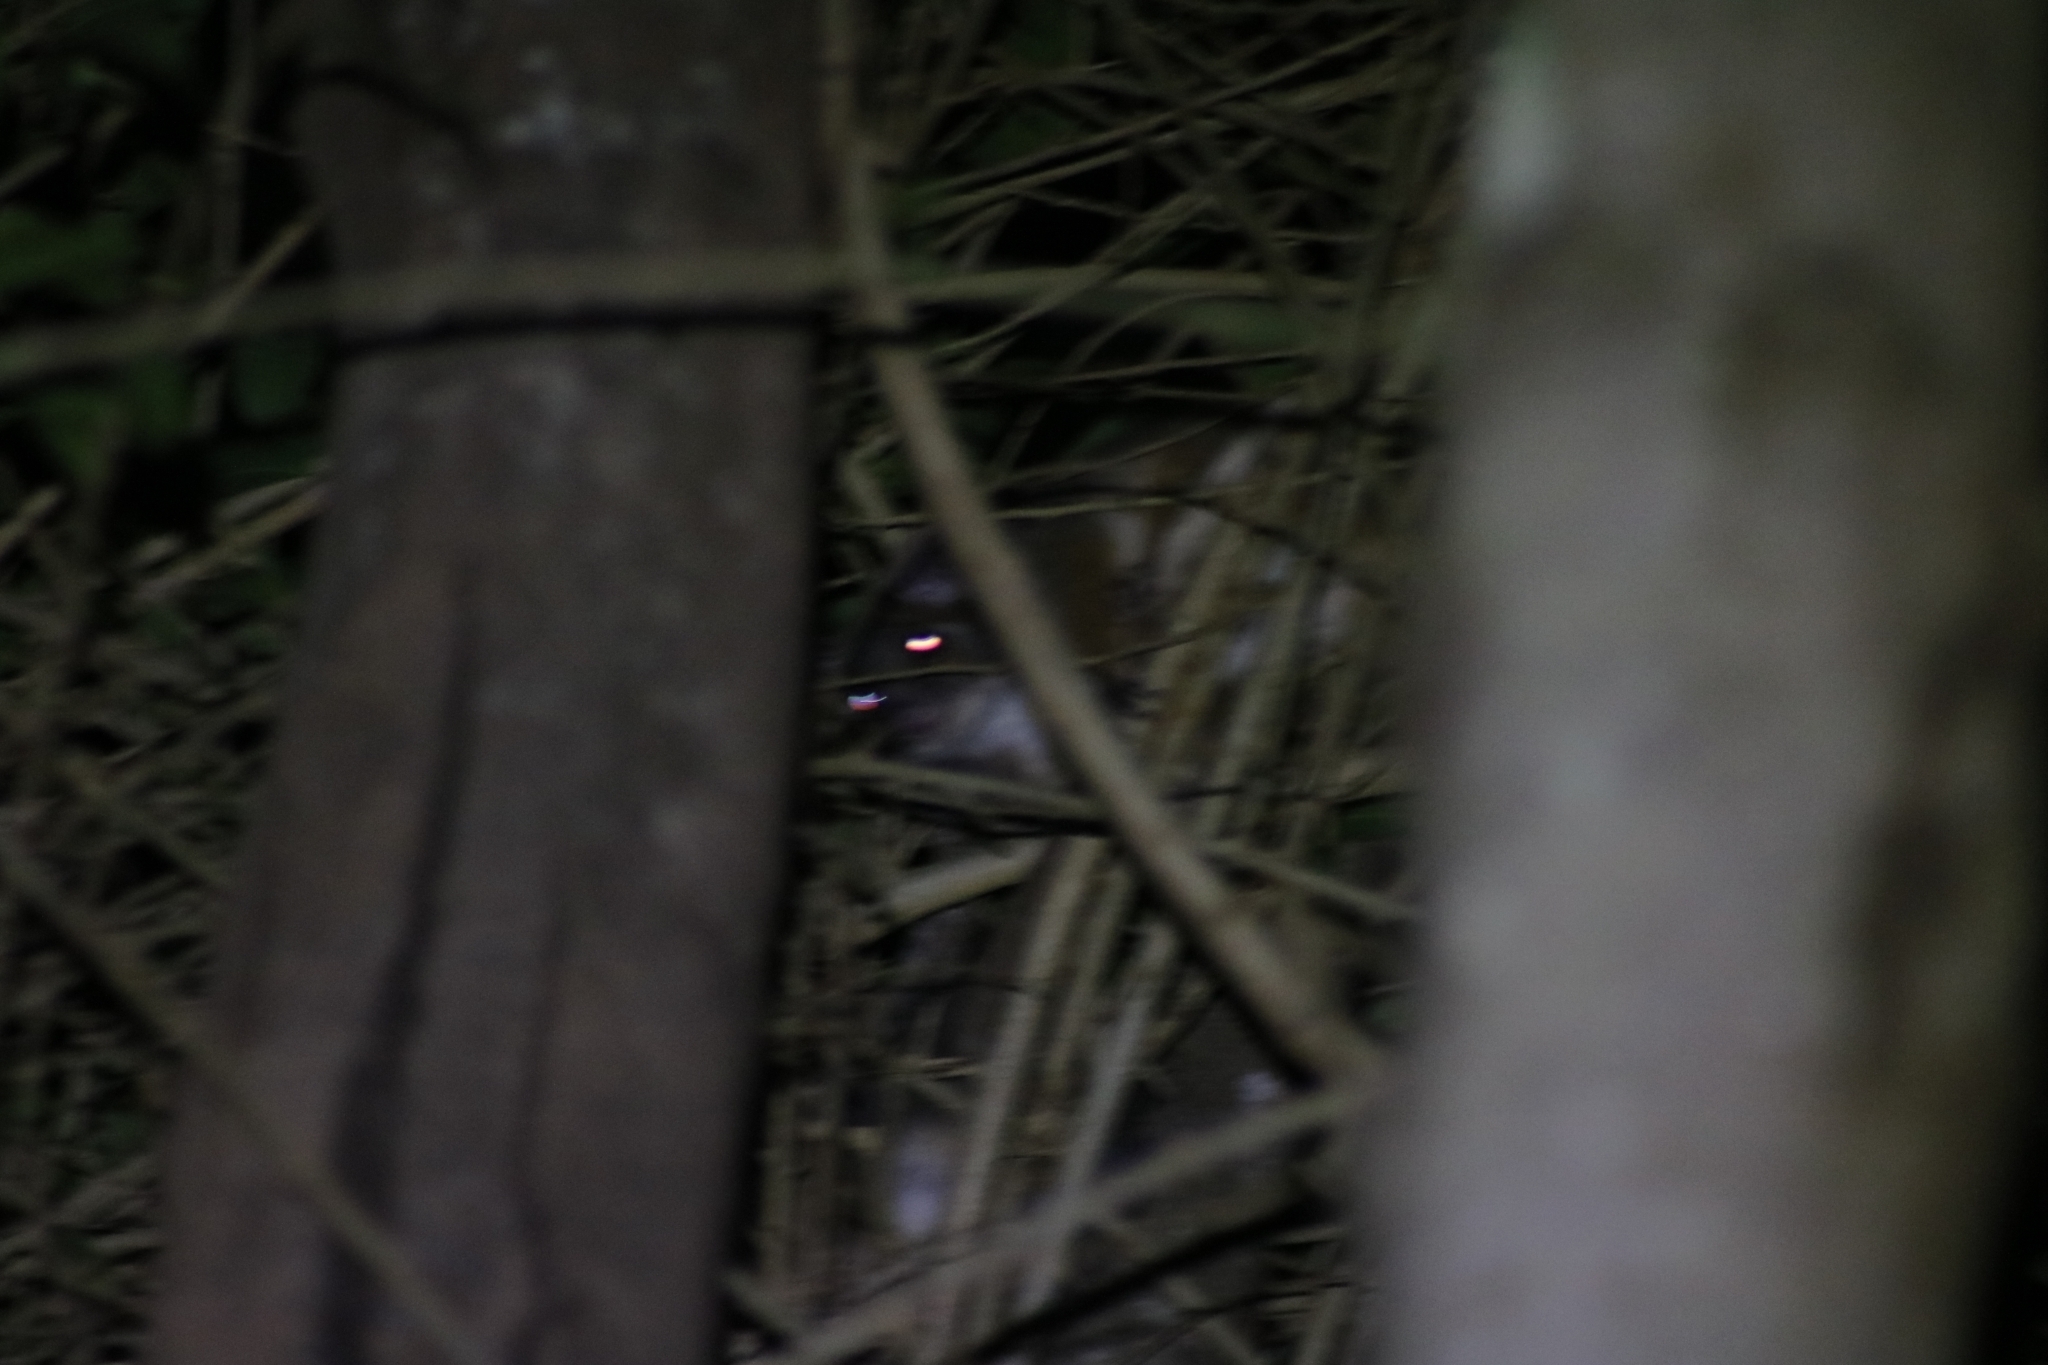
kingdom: Animalia
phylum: Chordata
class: Mammalia
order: Diprotodontia
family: Pseudocheiridae
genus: Pseudocheirus
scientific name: Pseudocheirus peregrinus
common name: Common ringtail possum
